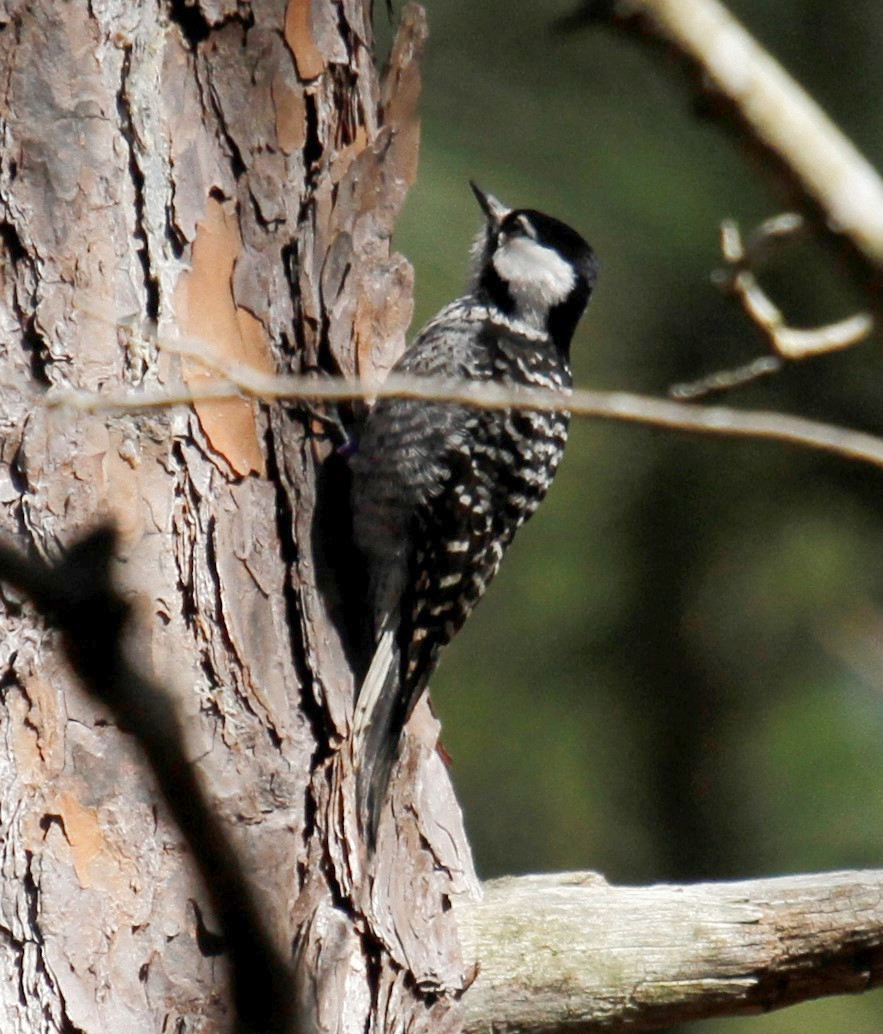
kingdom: Animalia
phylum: Chordata
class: Aves
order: Piciformes
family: Picidae
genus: Leuconotopicus
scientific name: Leuconotopicus borealis
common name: Red-cockaded woodpecker
